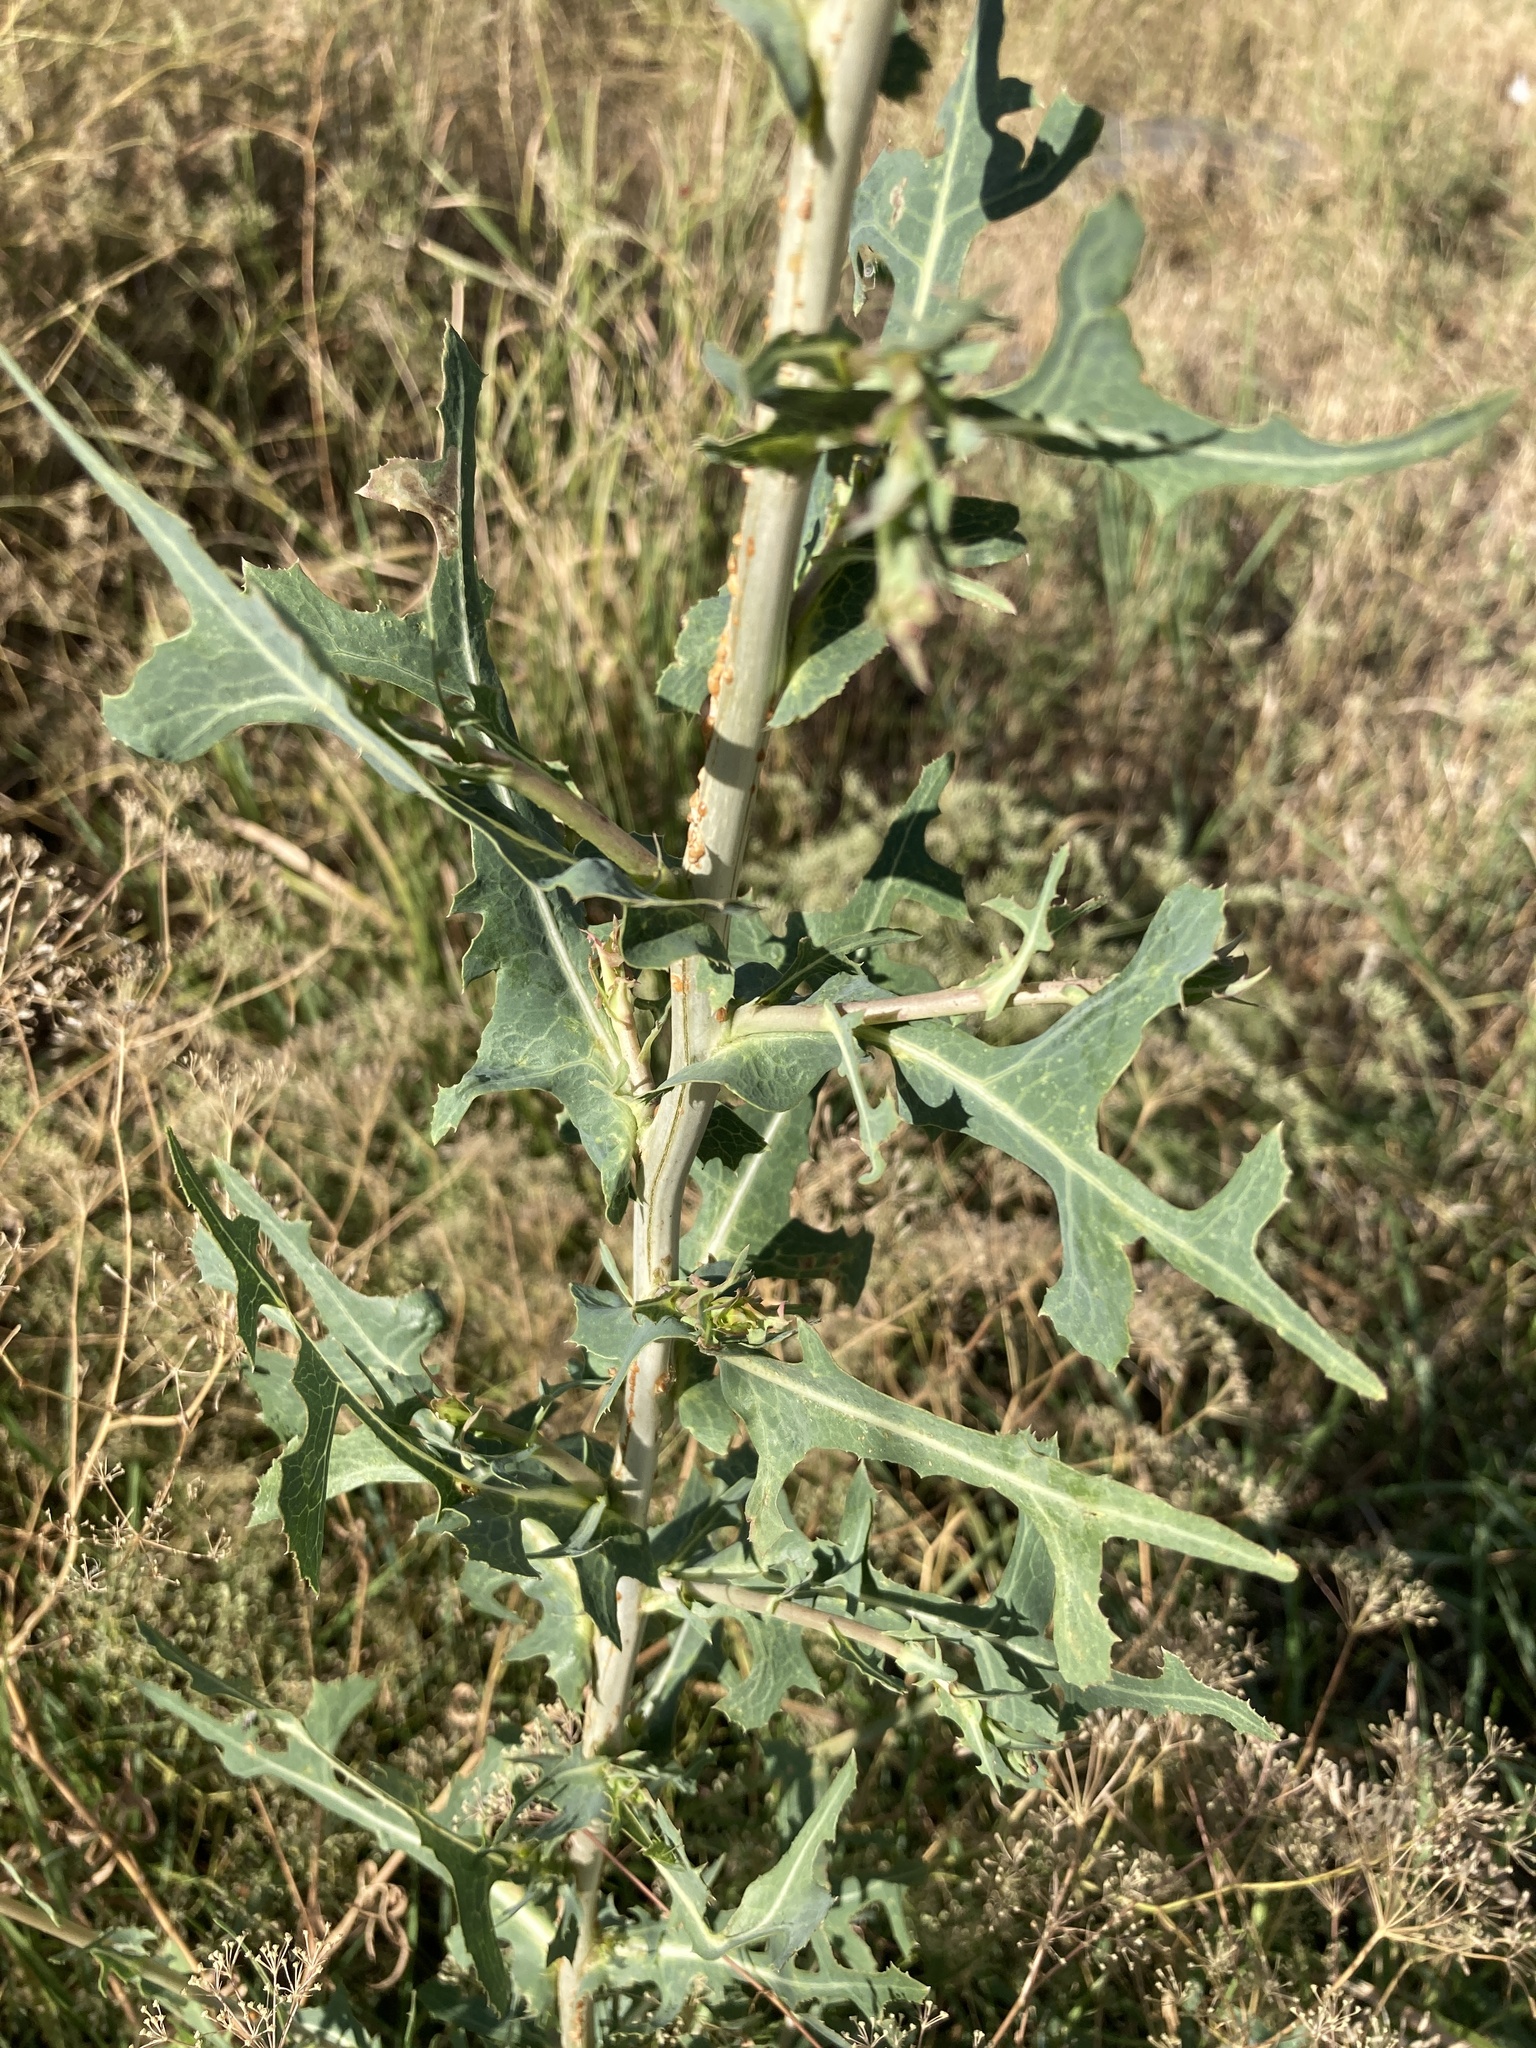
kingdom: Plantae
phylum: Tracheophyta
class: Magnoliopsida
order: Asterales
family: Asteraceae
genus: Lactuca
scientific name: Lactuca serriola
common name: Prickly lettuce
